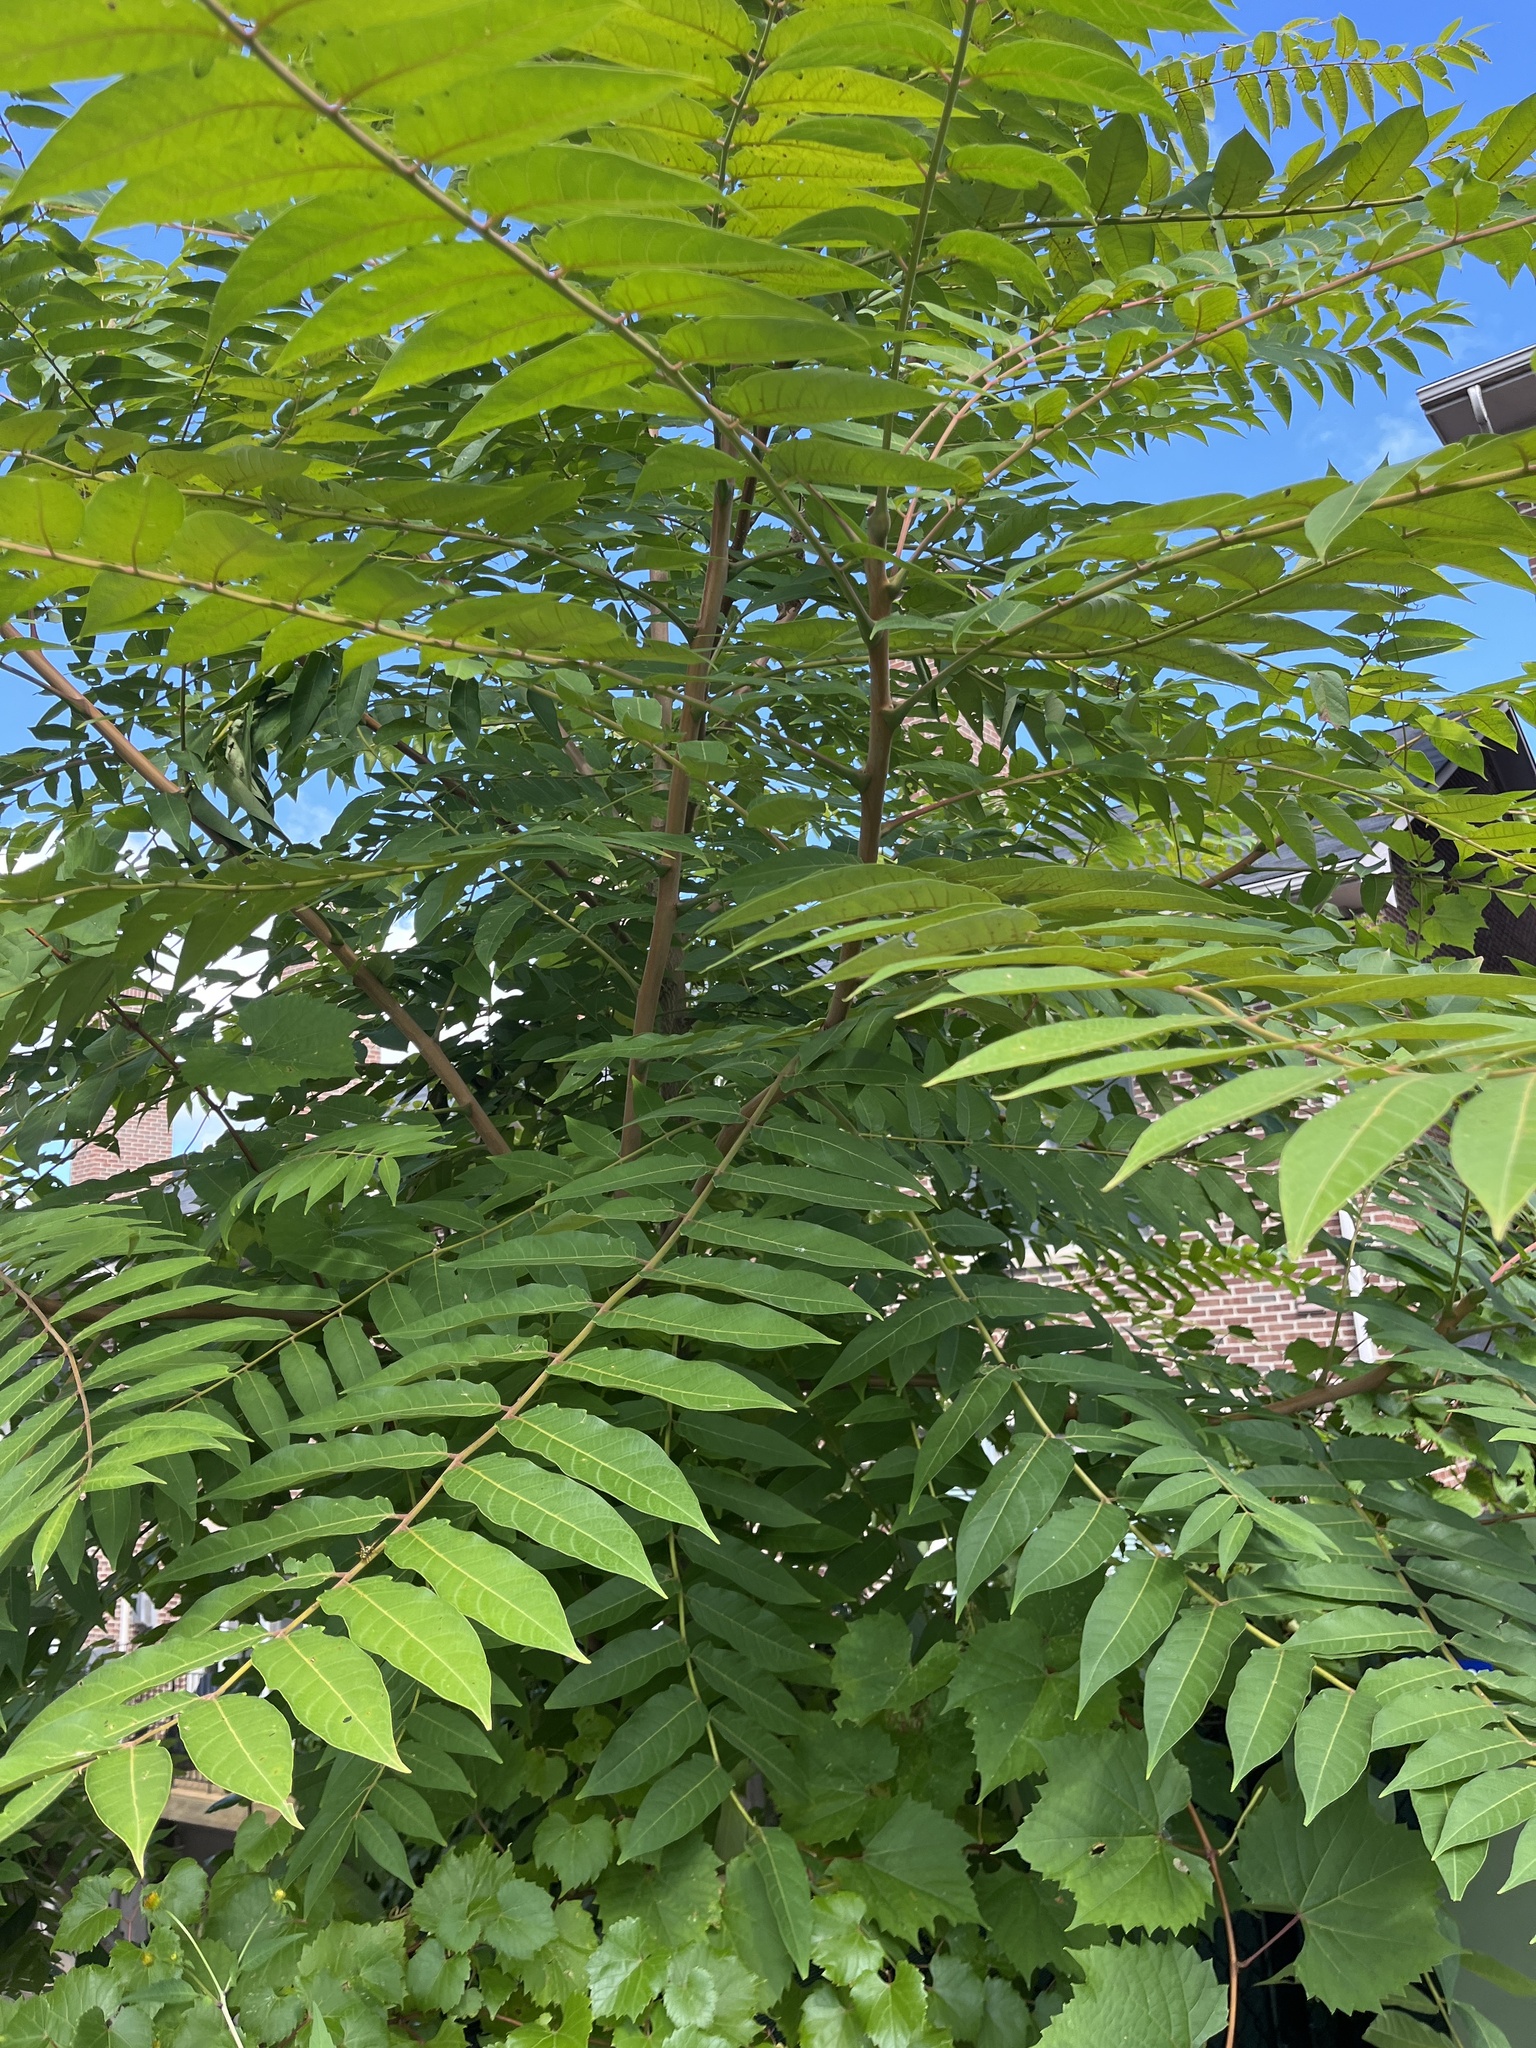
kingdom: Plantae
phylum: Tracheophyta
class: Magnoliopsida
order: Sapindales
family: Simaroubaceae
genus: Ailanthus
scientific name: Ailanthus altissima
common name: Tree-of-heaven
